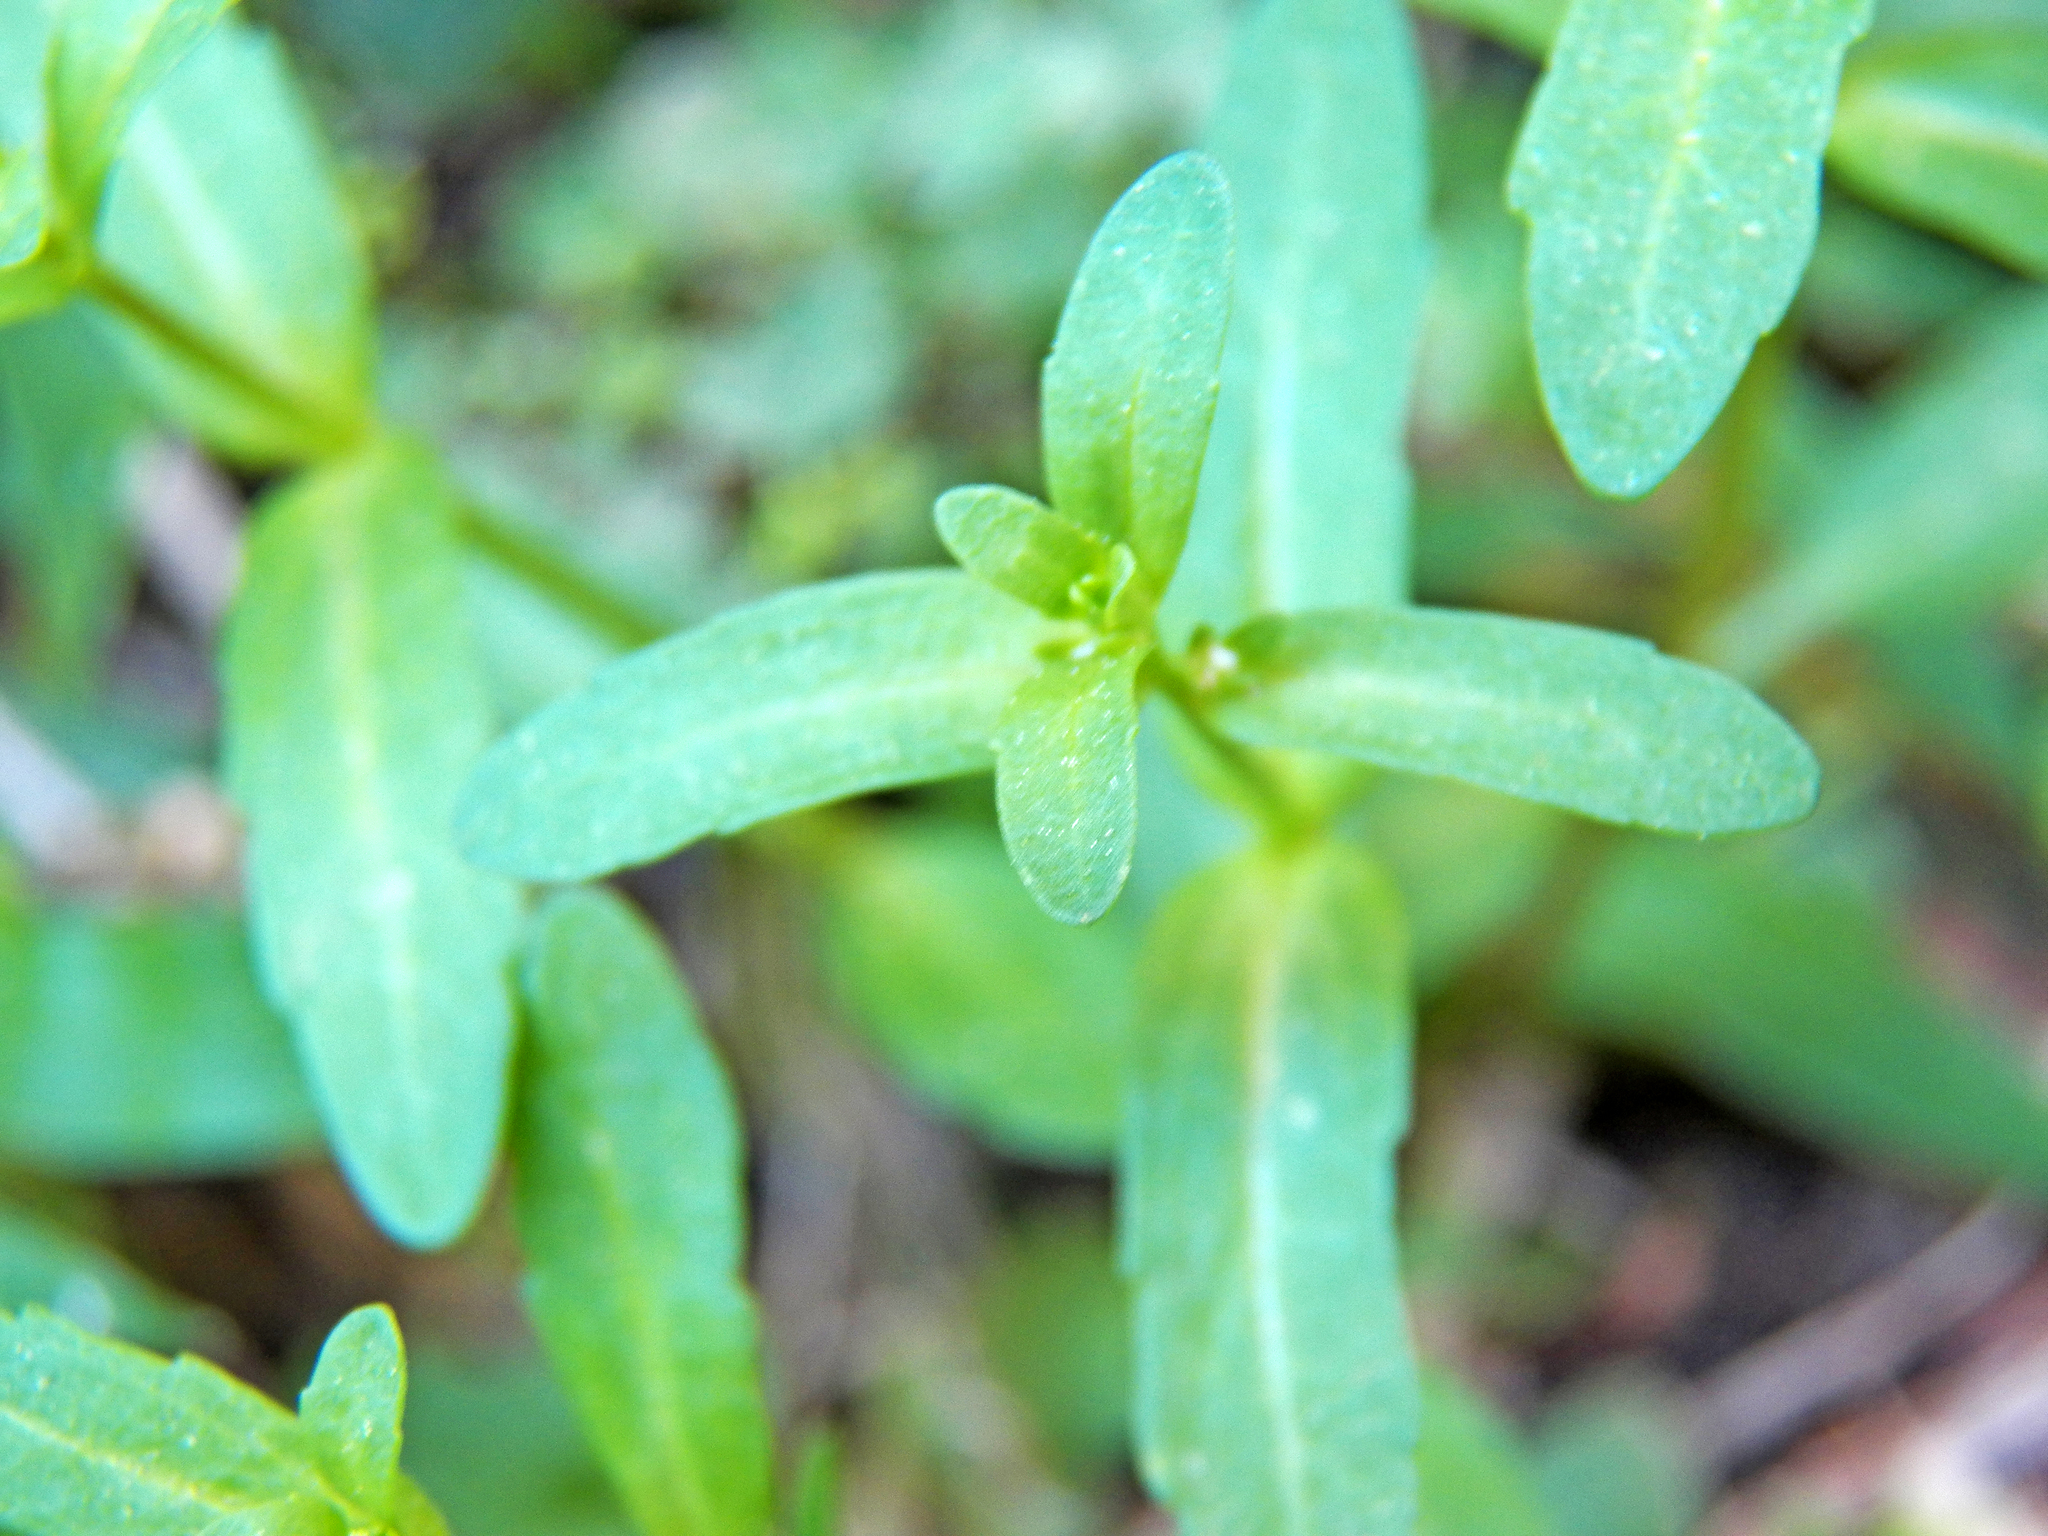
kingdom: Plantae
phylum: Tracheophyta
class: Magnoliopsida
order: Lamiales
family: Plantaginaceae
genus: Veronica
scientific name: Veronica peregrina
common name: Neckweed
